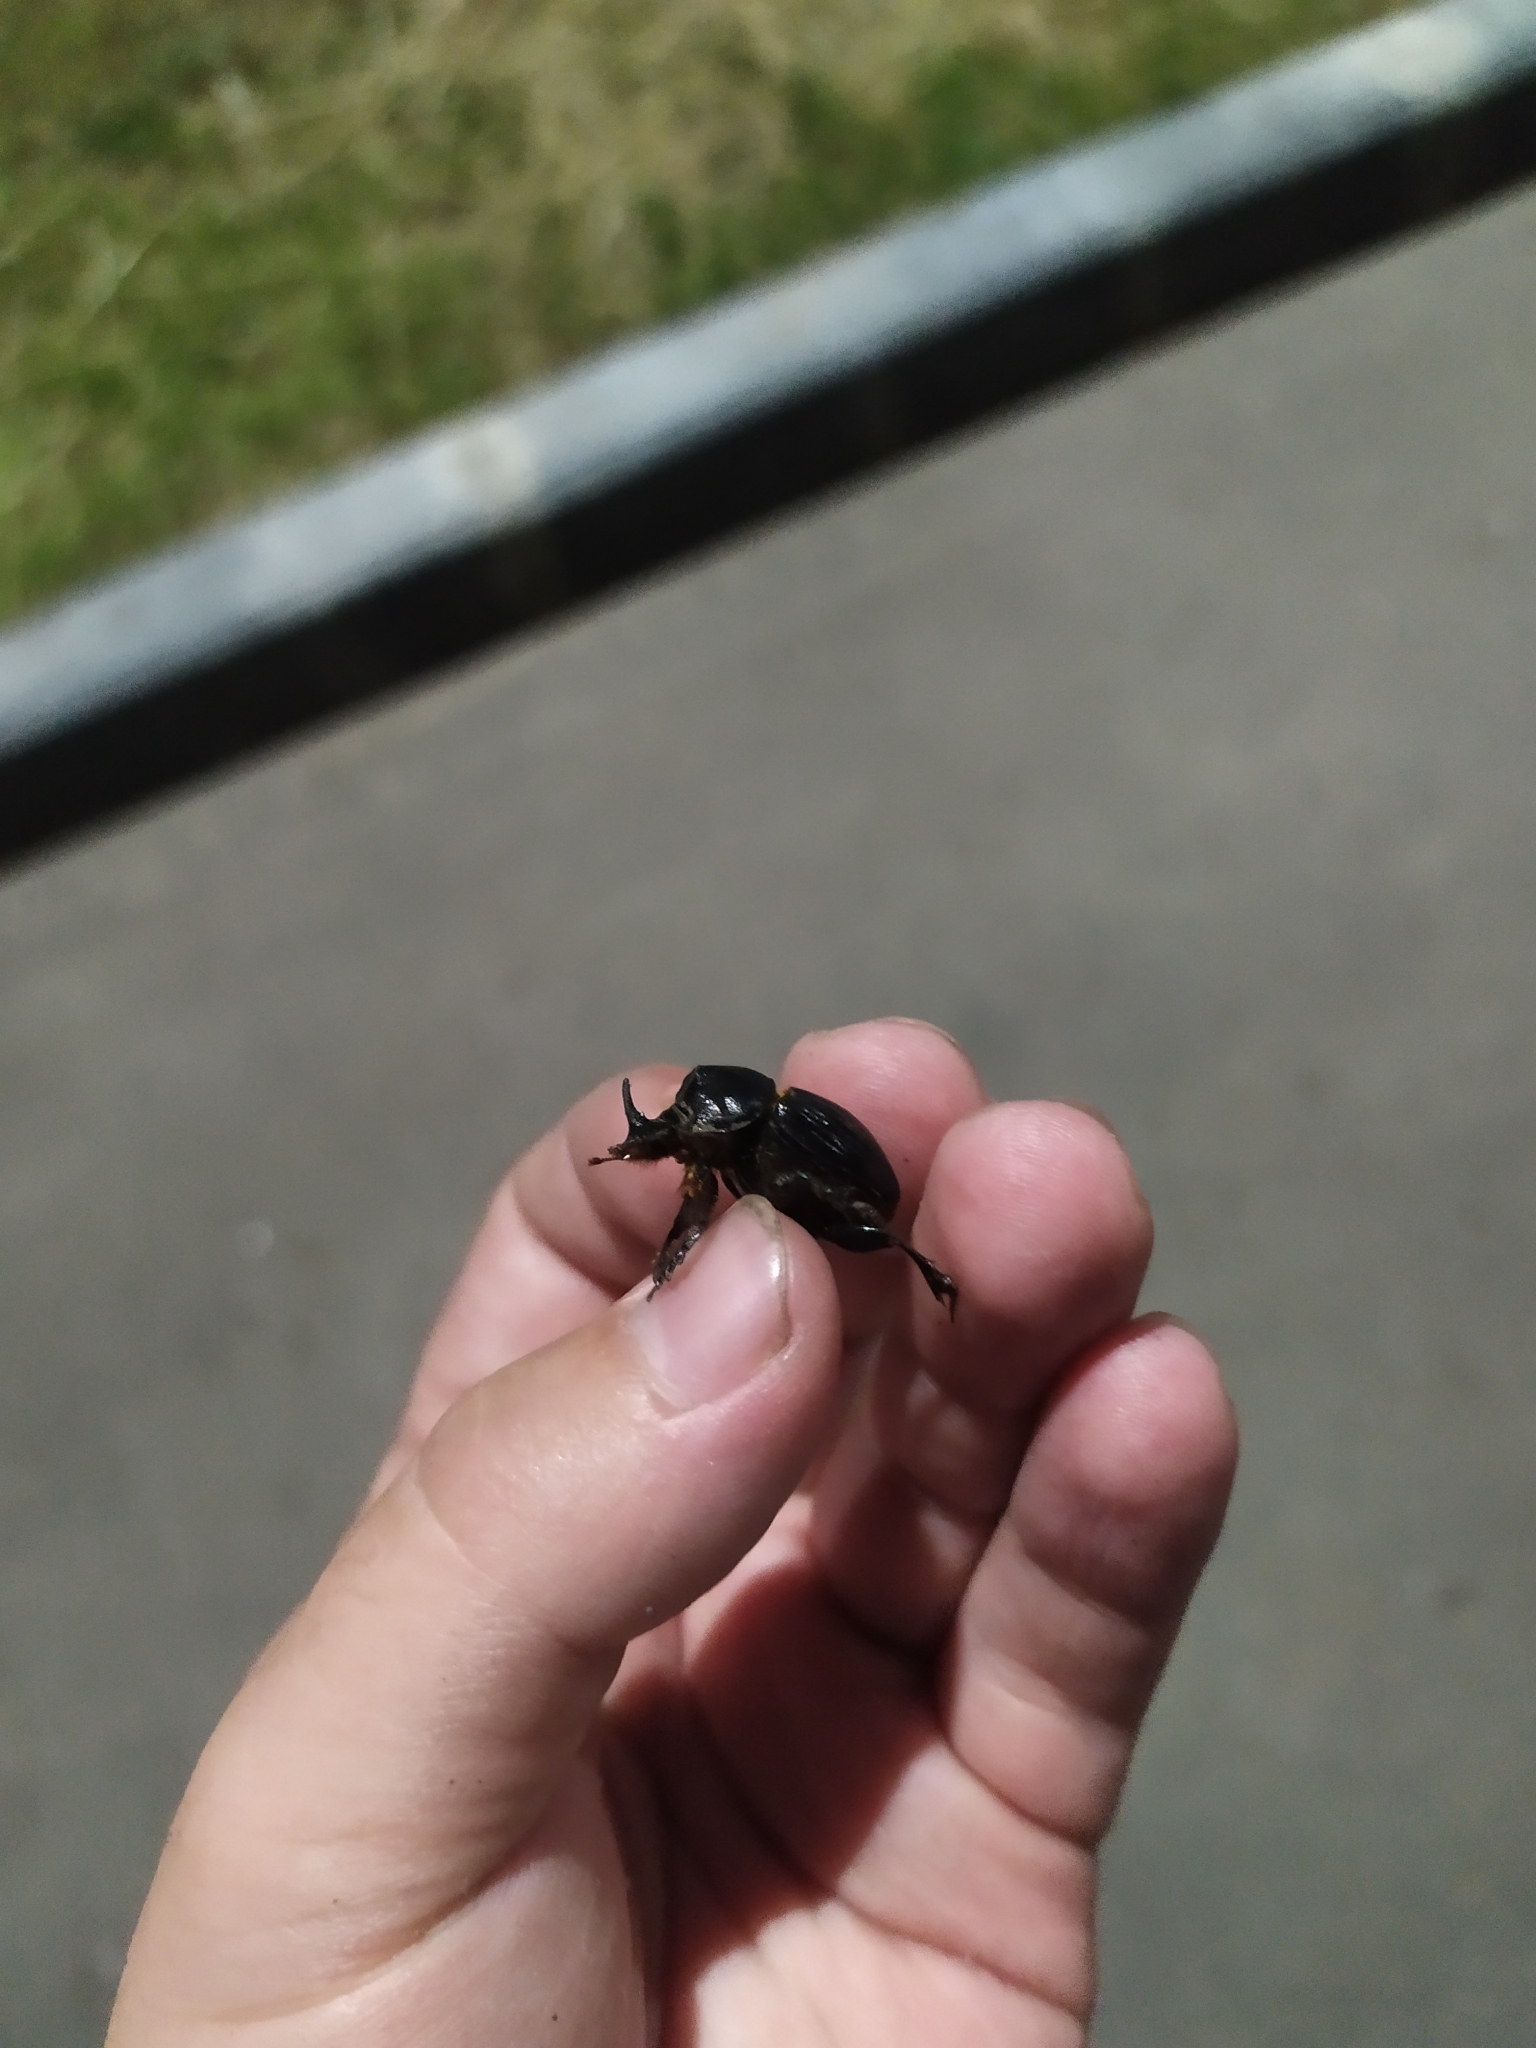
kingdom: Animalia
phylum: Arthropoda
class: Insecta
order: Coleoptera
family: Scarabaeidae
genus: Copris
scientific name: Copris lunaris
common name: Horned dung beetle
